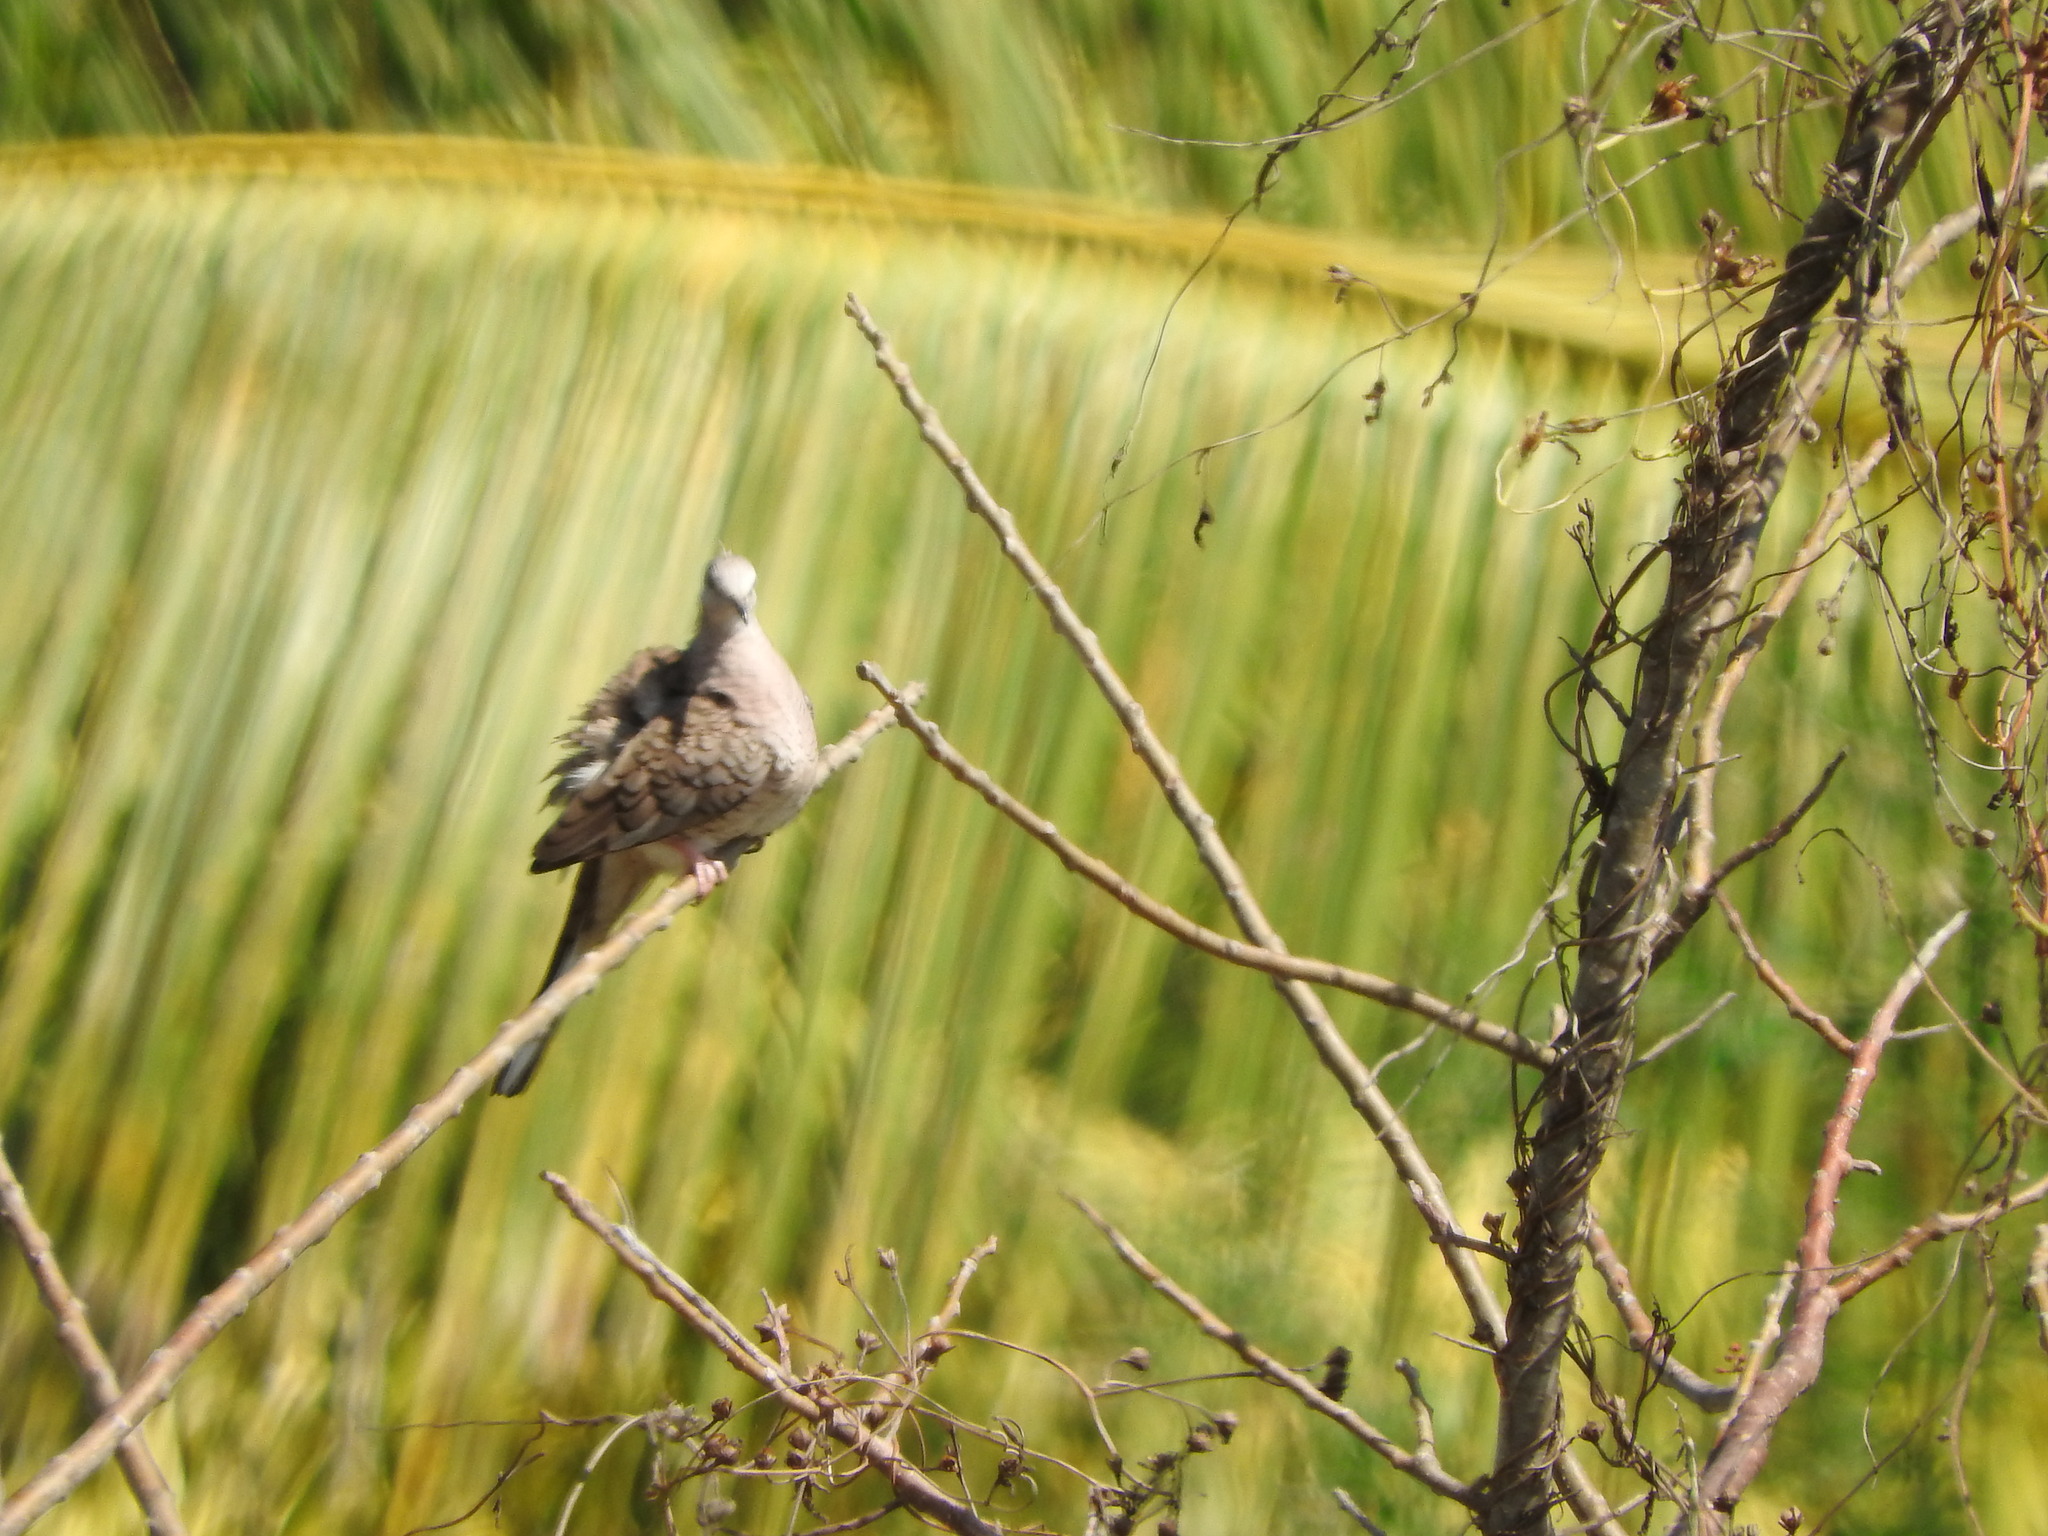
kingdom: Animalia
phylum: Chordata
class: Aves
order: Columbiformes
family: Columbidae
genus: Columbina
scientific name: Columbina inca
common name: Inca dove
